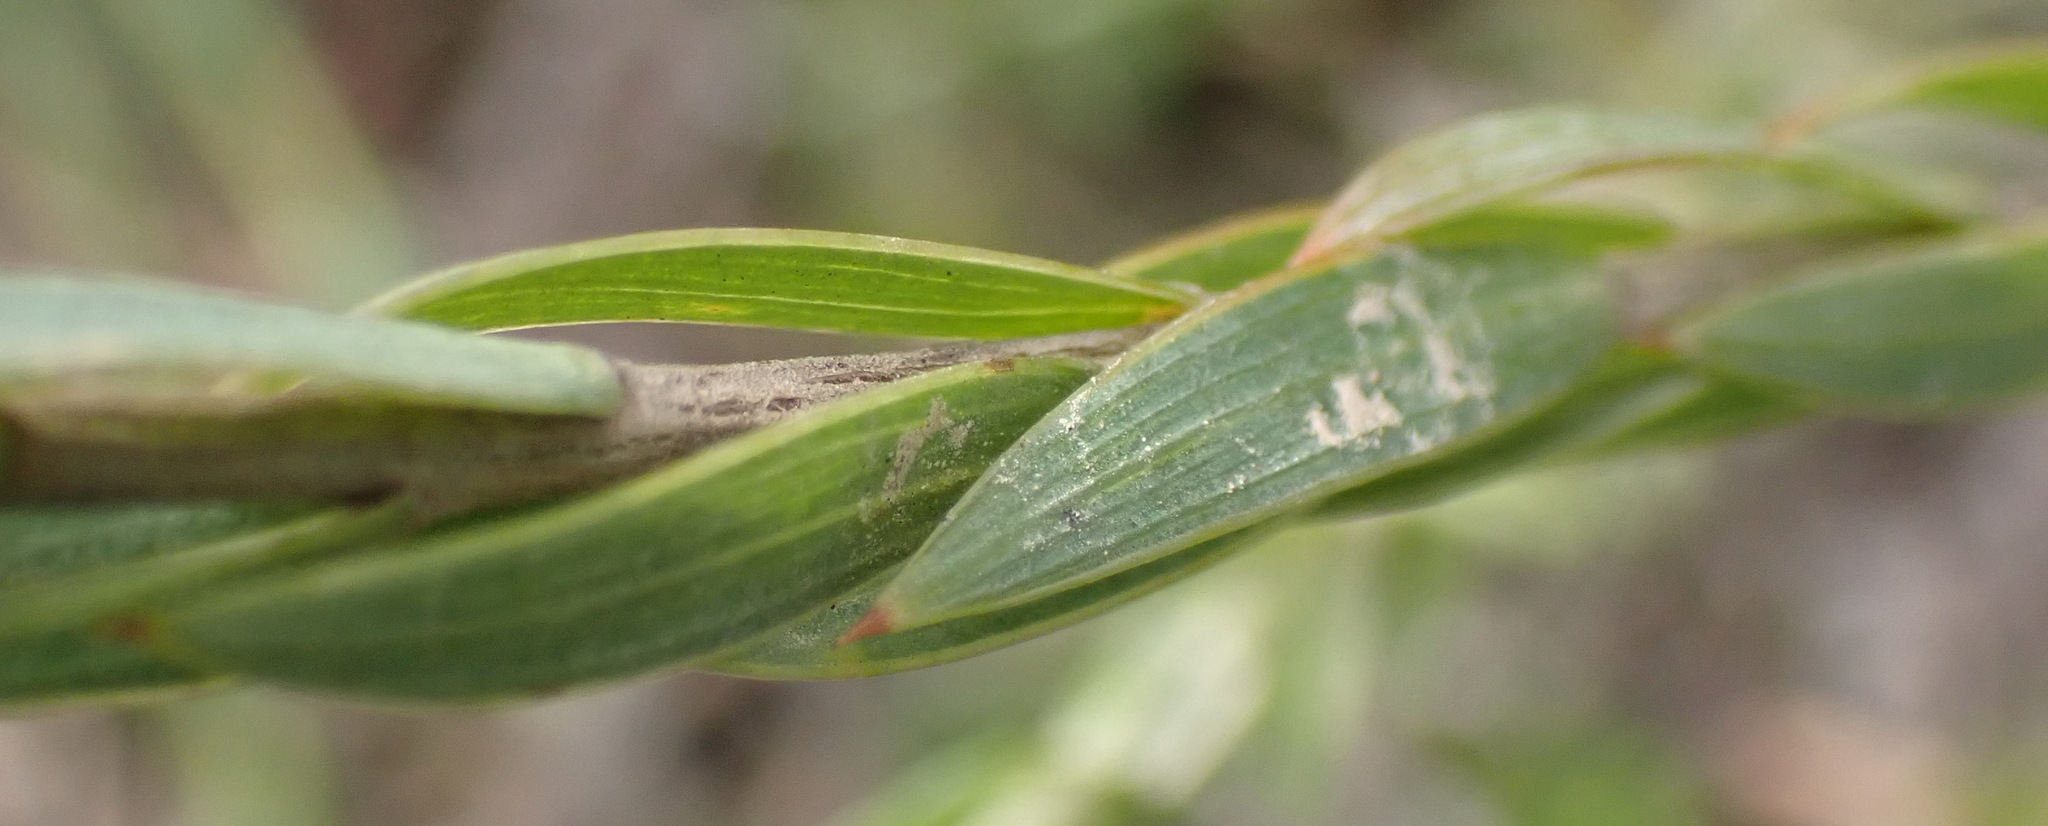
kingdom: Plantae
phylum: Tracheophyta
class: Magnoliopsida
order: Fabales
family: Fabaceae
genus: Aspalathus
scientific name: Aspalathus angustifolia
